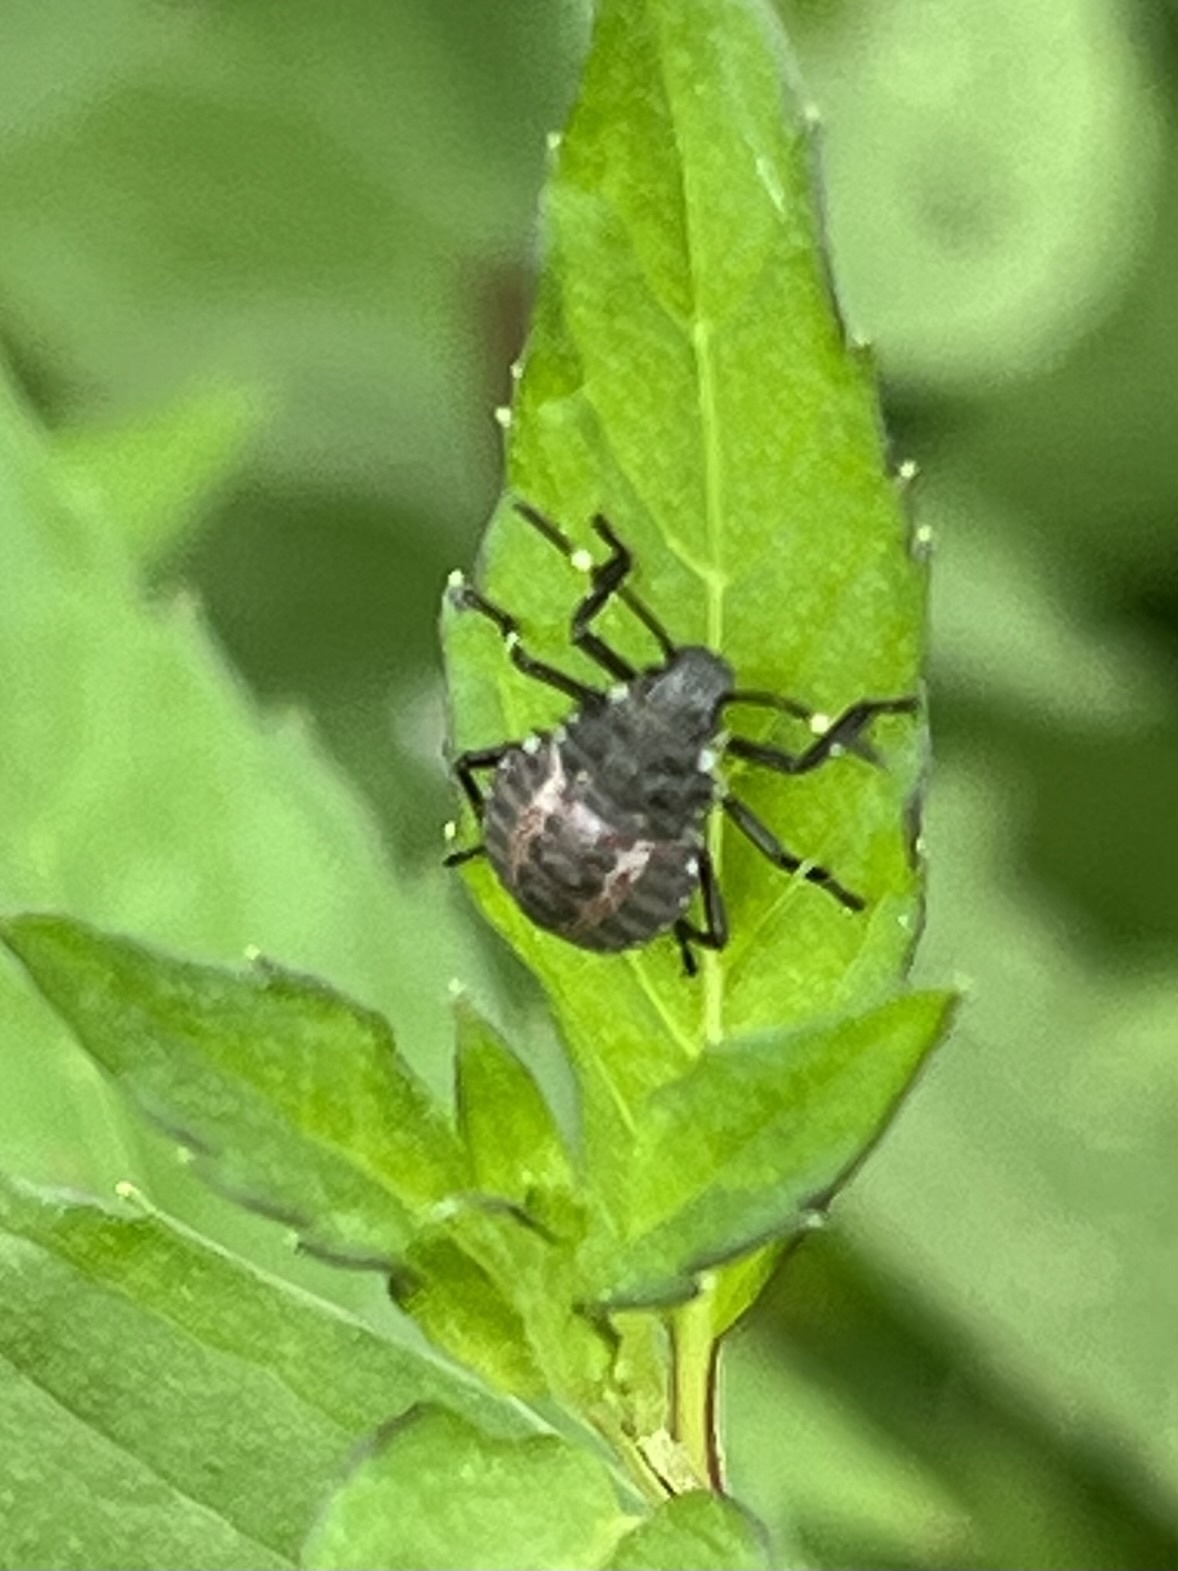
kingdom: Animalia
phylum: Arthropoda
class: Insecta
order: Hemiptera
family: Pentatomidae
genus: Halyomorpha
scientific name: Halyomorpha halys
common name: Brown marmorated stink bug
